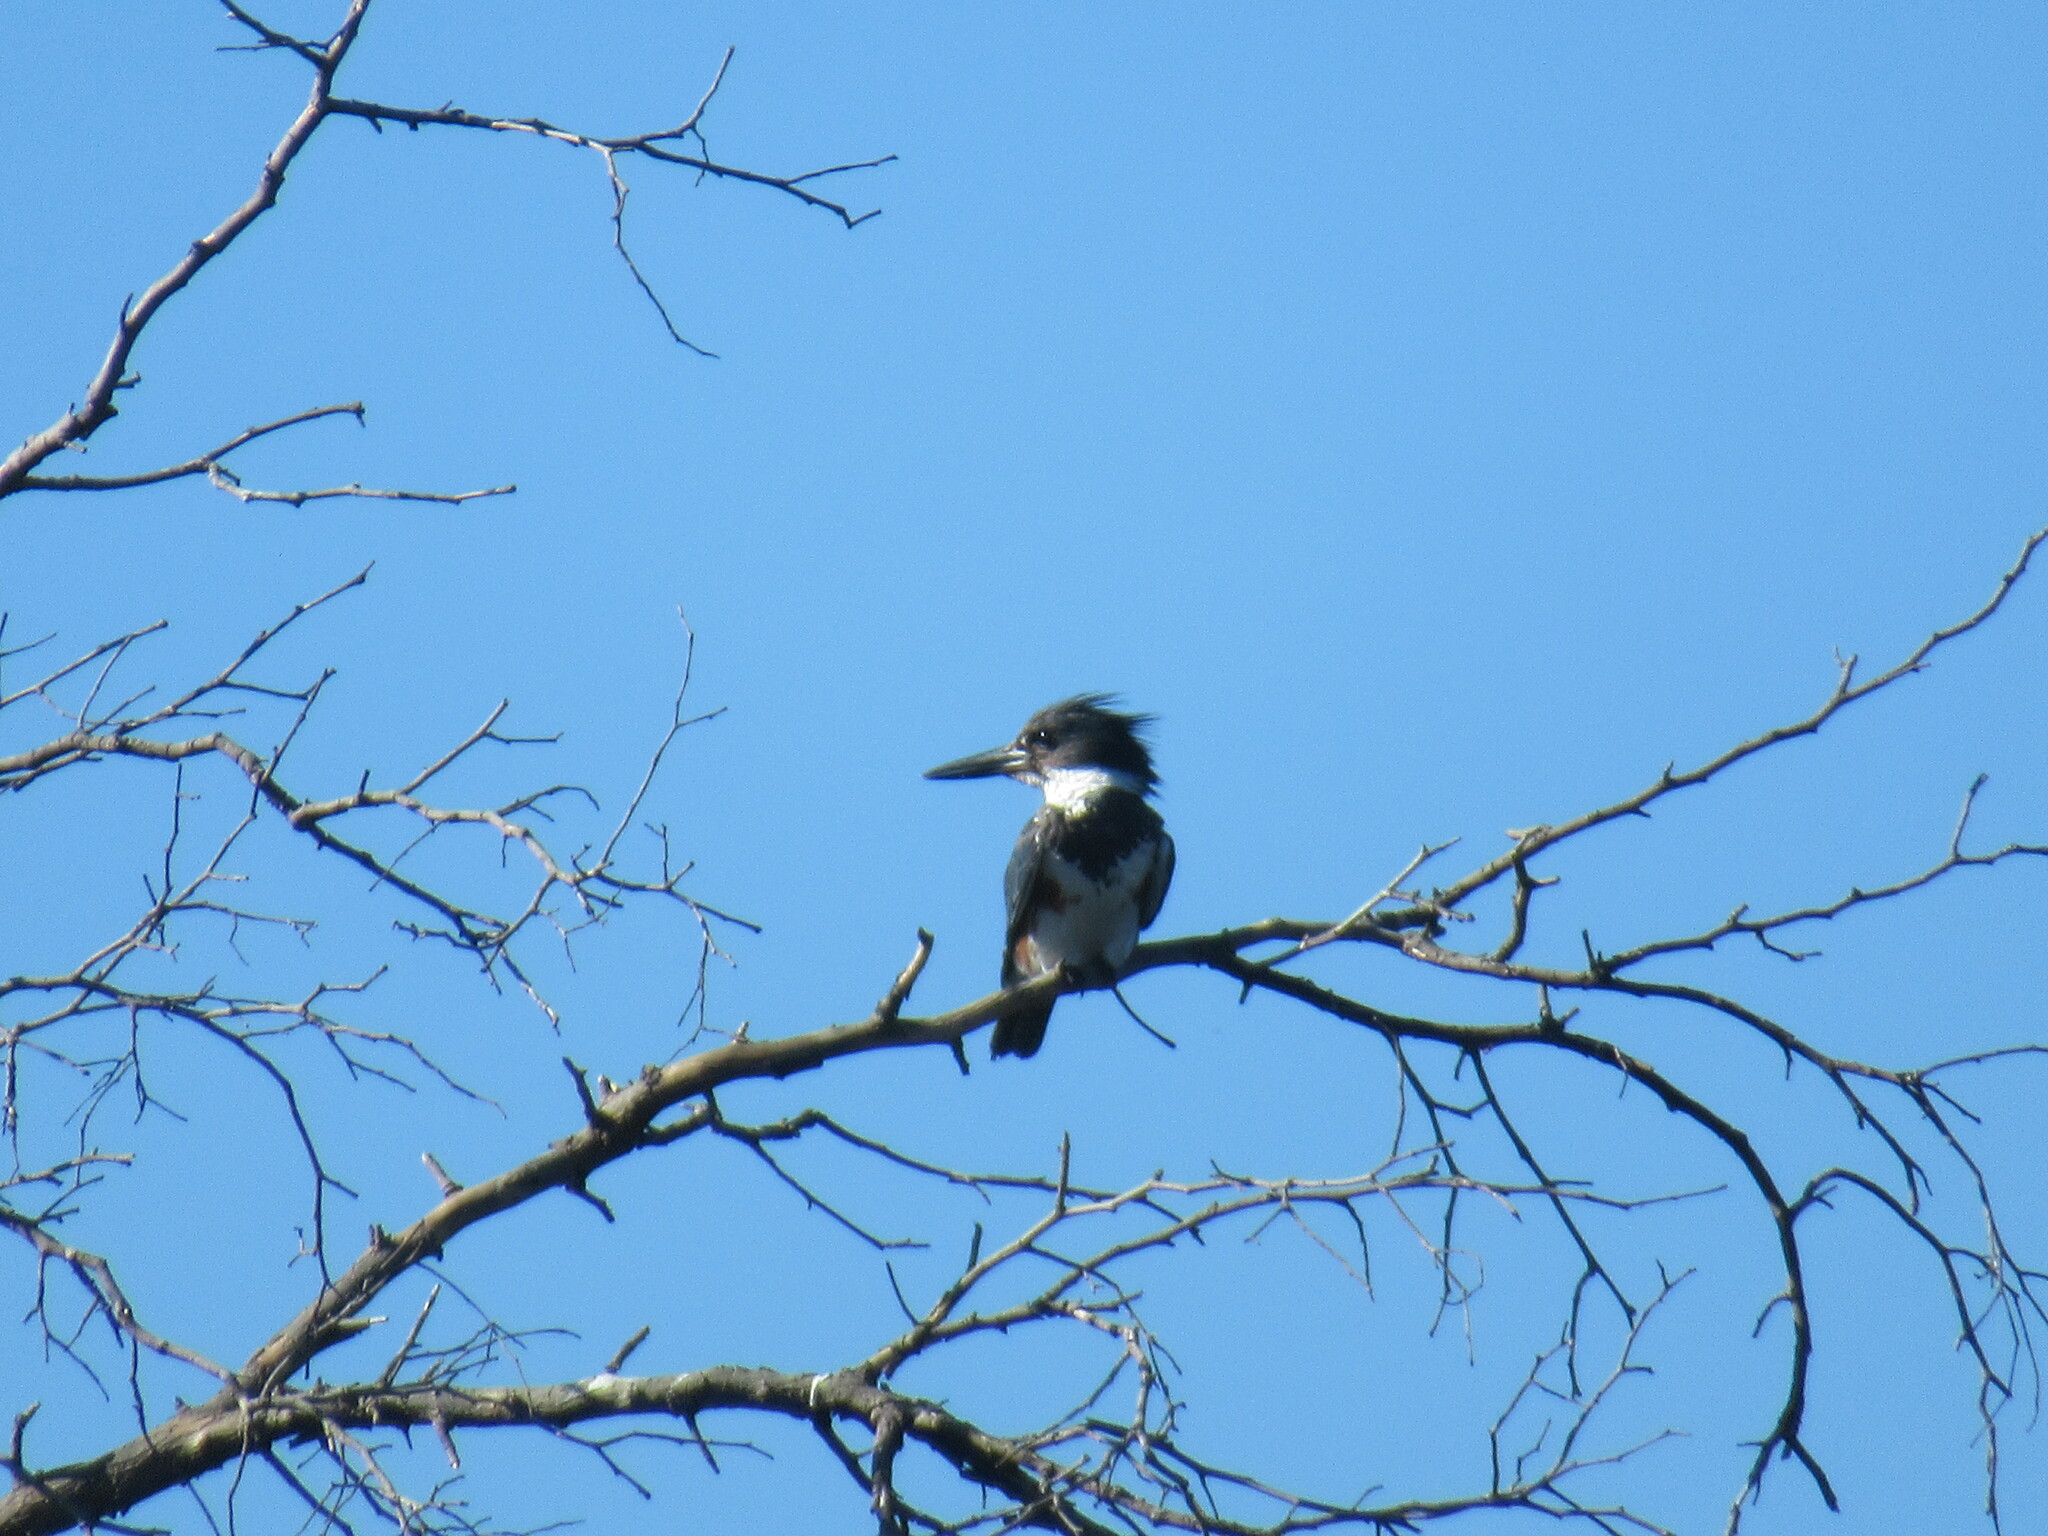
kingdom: Animalia
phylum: Chordata
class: Aves
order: Coraciiformes
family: Alcedinidae
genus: Megaceryle
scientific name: Megaceryle alcyon
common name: Belted kingfisher
